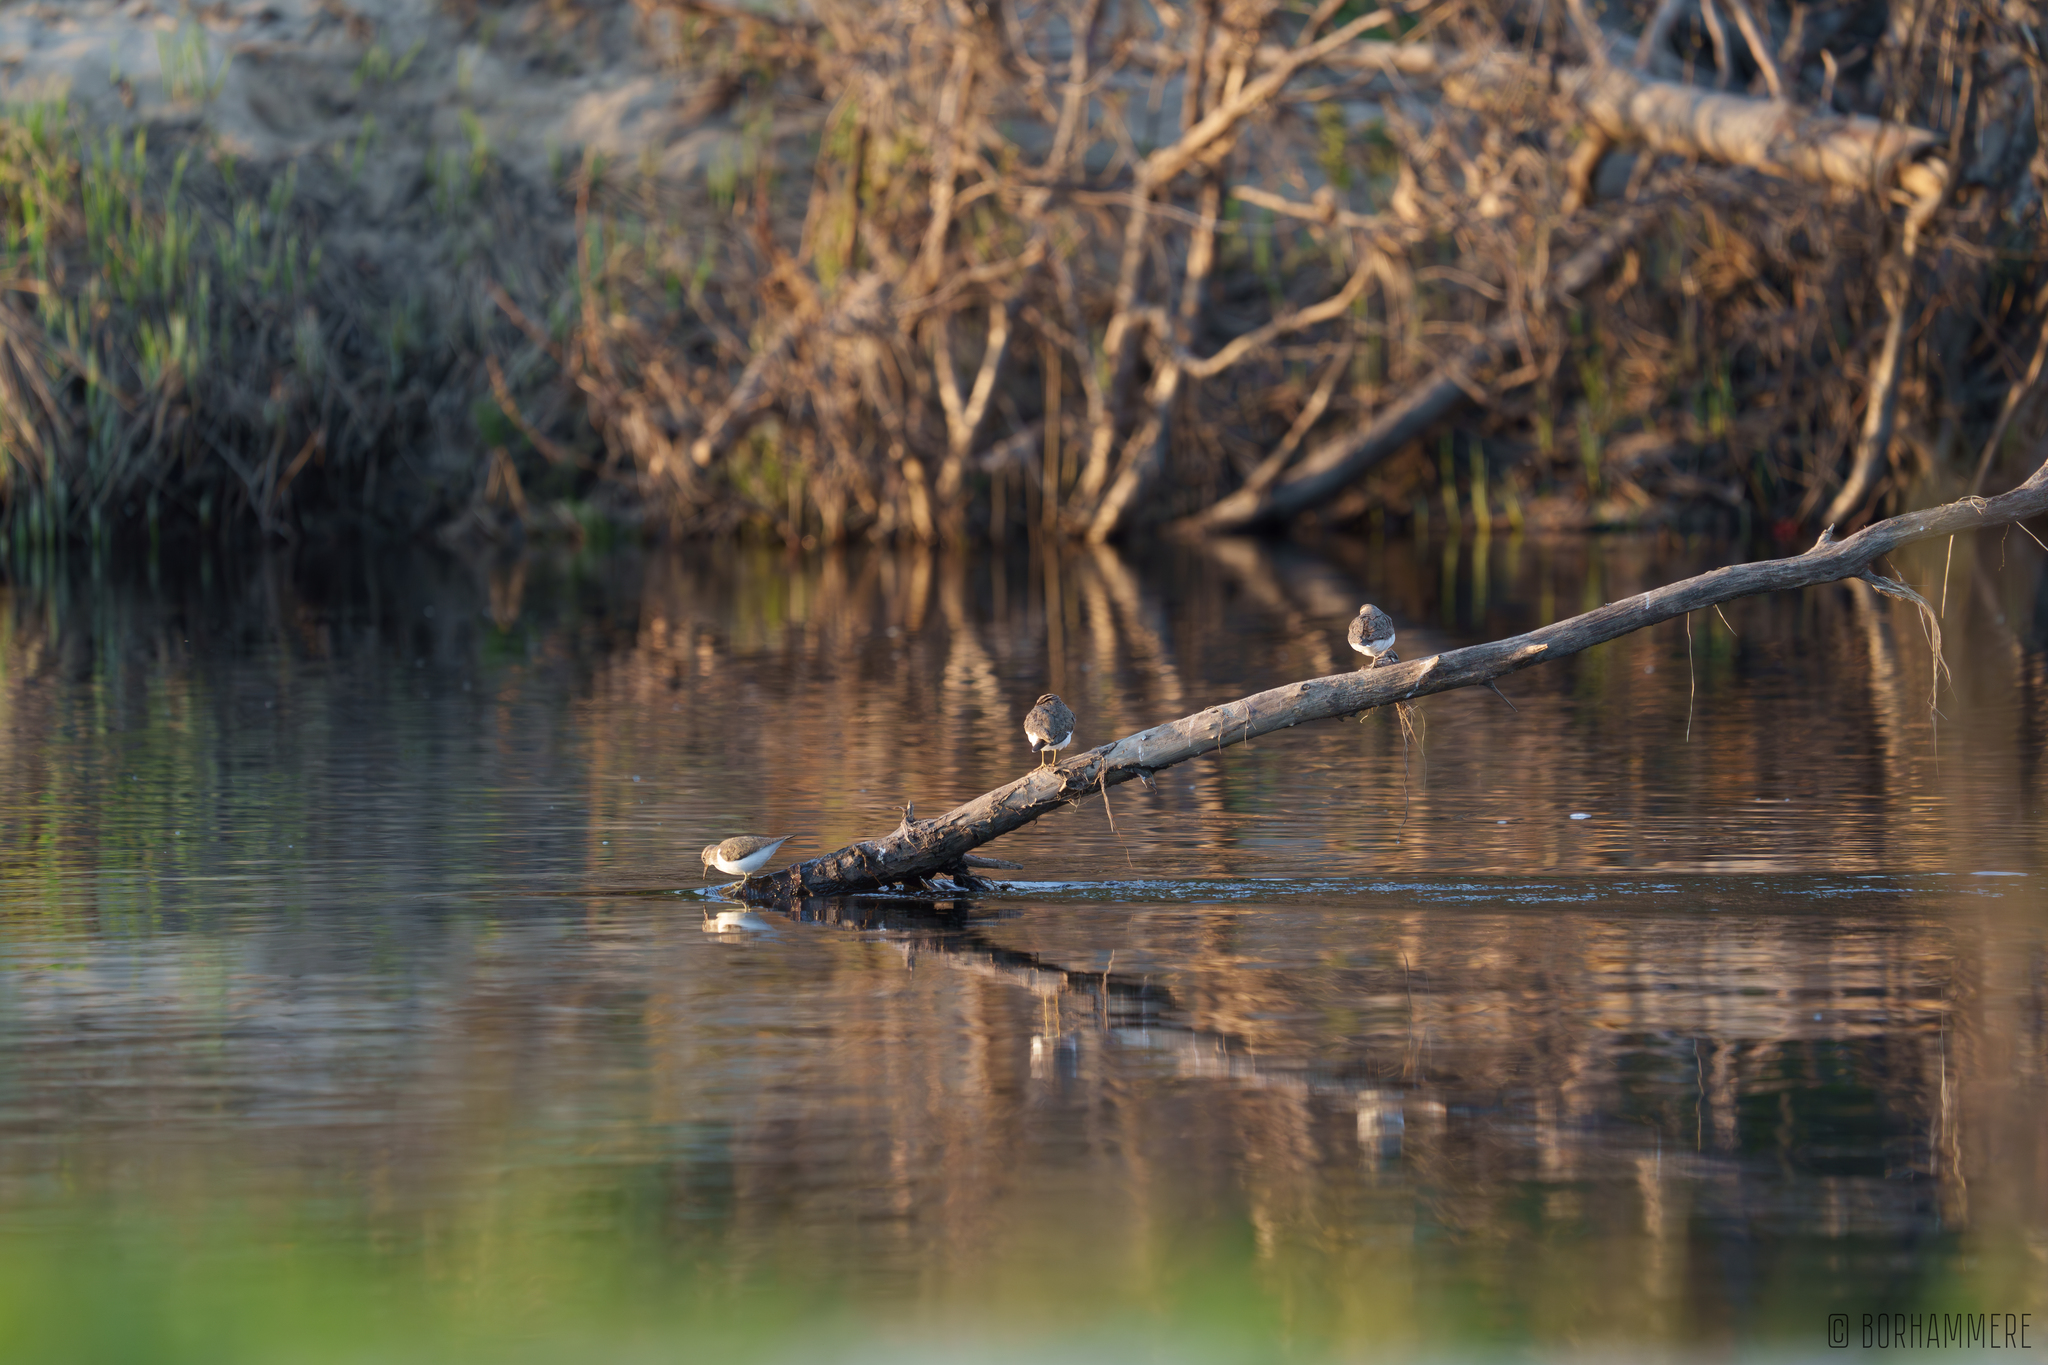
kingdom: Animalia
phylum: Chordata
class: Aves
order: Charadriiformes
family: Scolopacidae
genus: Actitis
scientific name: Actitis hypoleucos
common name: Common sandpiper
